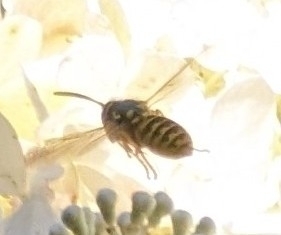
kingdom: Animalia
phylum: Arthropoda
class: Insecta
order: Hymenoptera
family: Vespidae
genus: Vespula
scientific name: Vespula germanica
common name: German wasp
